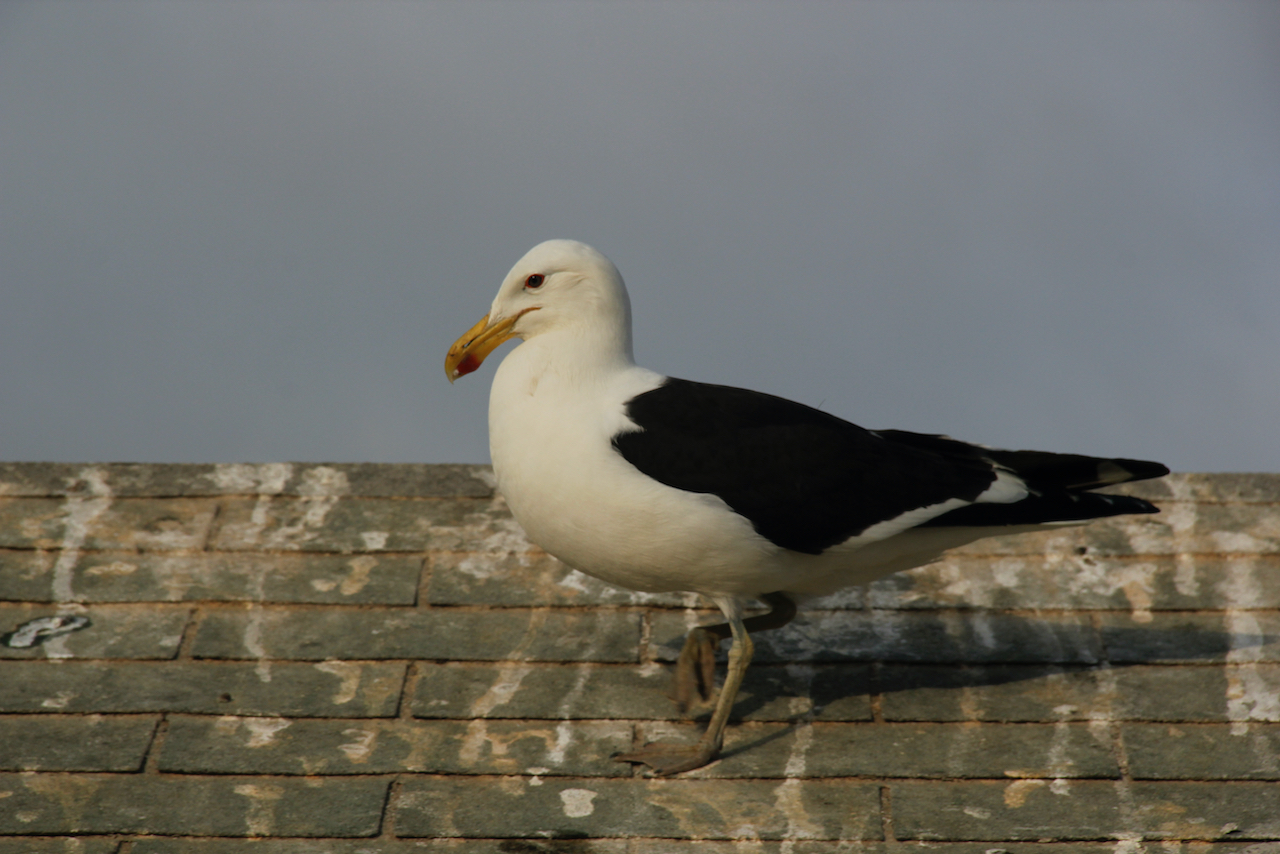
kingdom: Animalia
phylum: Chordata
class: Aves
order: Charadriiformes
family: Laridae
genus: Larus
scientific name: Larus dominicanus
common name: Kelp gull
